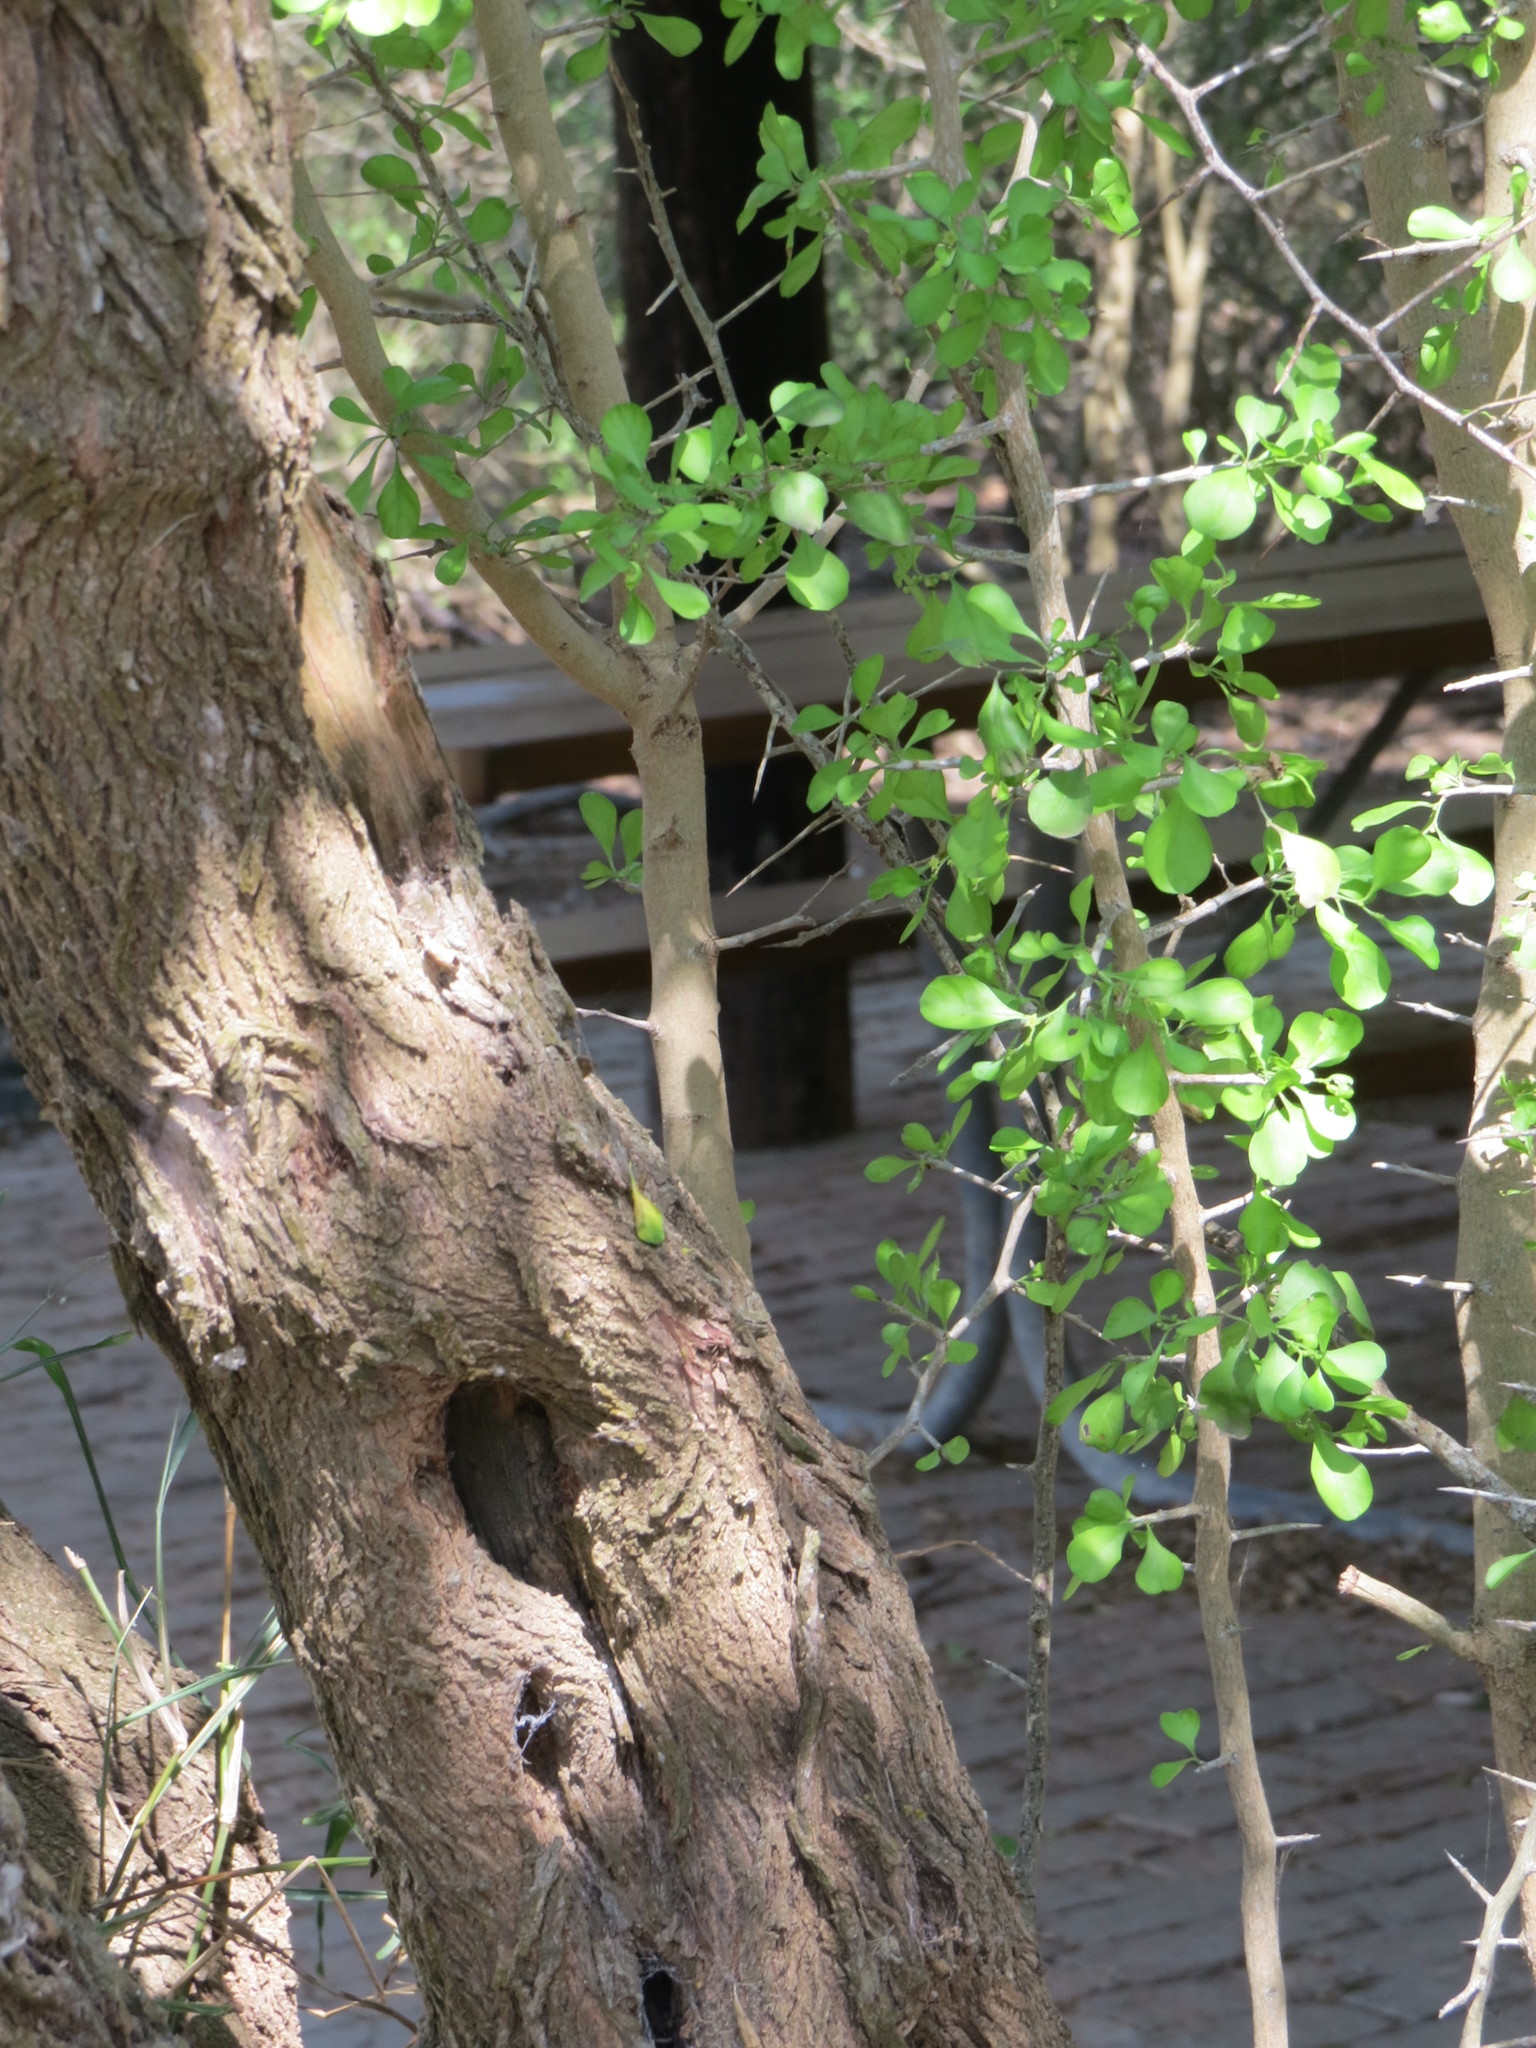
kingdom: Plantae
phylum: Tracheophyta
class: Magnoliopsida
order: Rosales
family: Rhamnaceae
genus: Condalia
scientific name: Condalia hookeri
